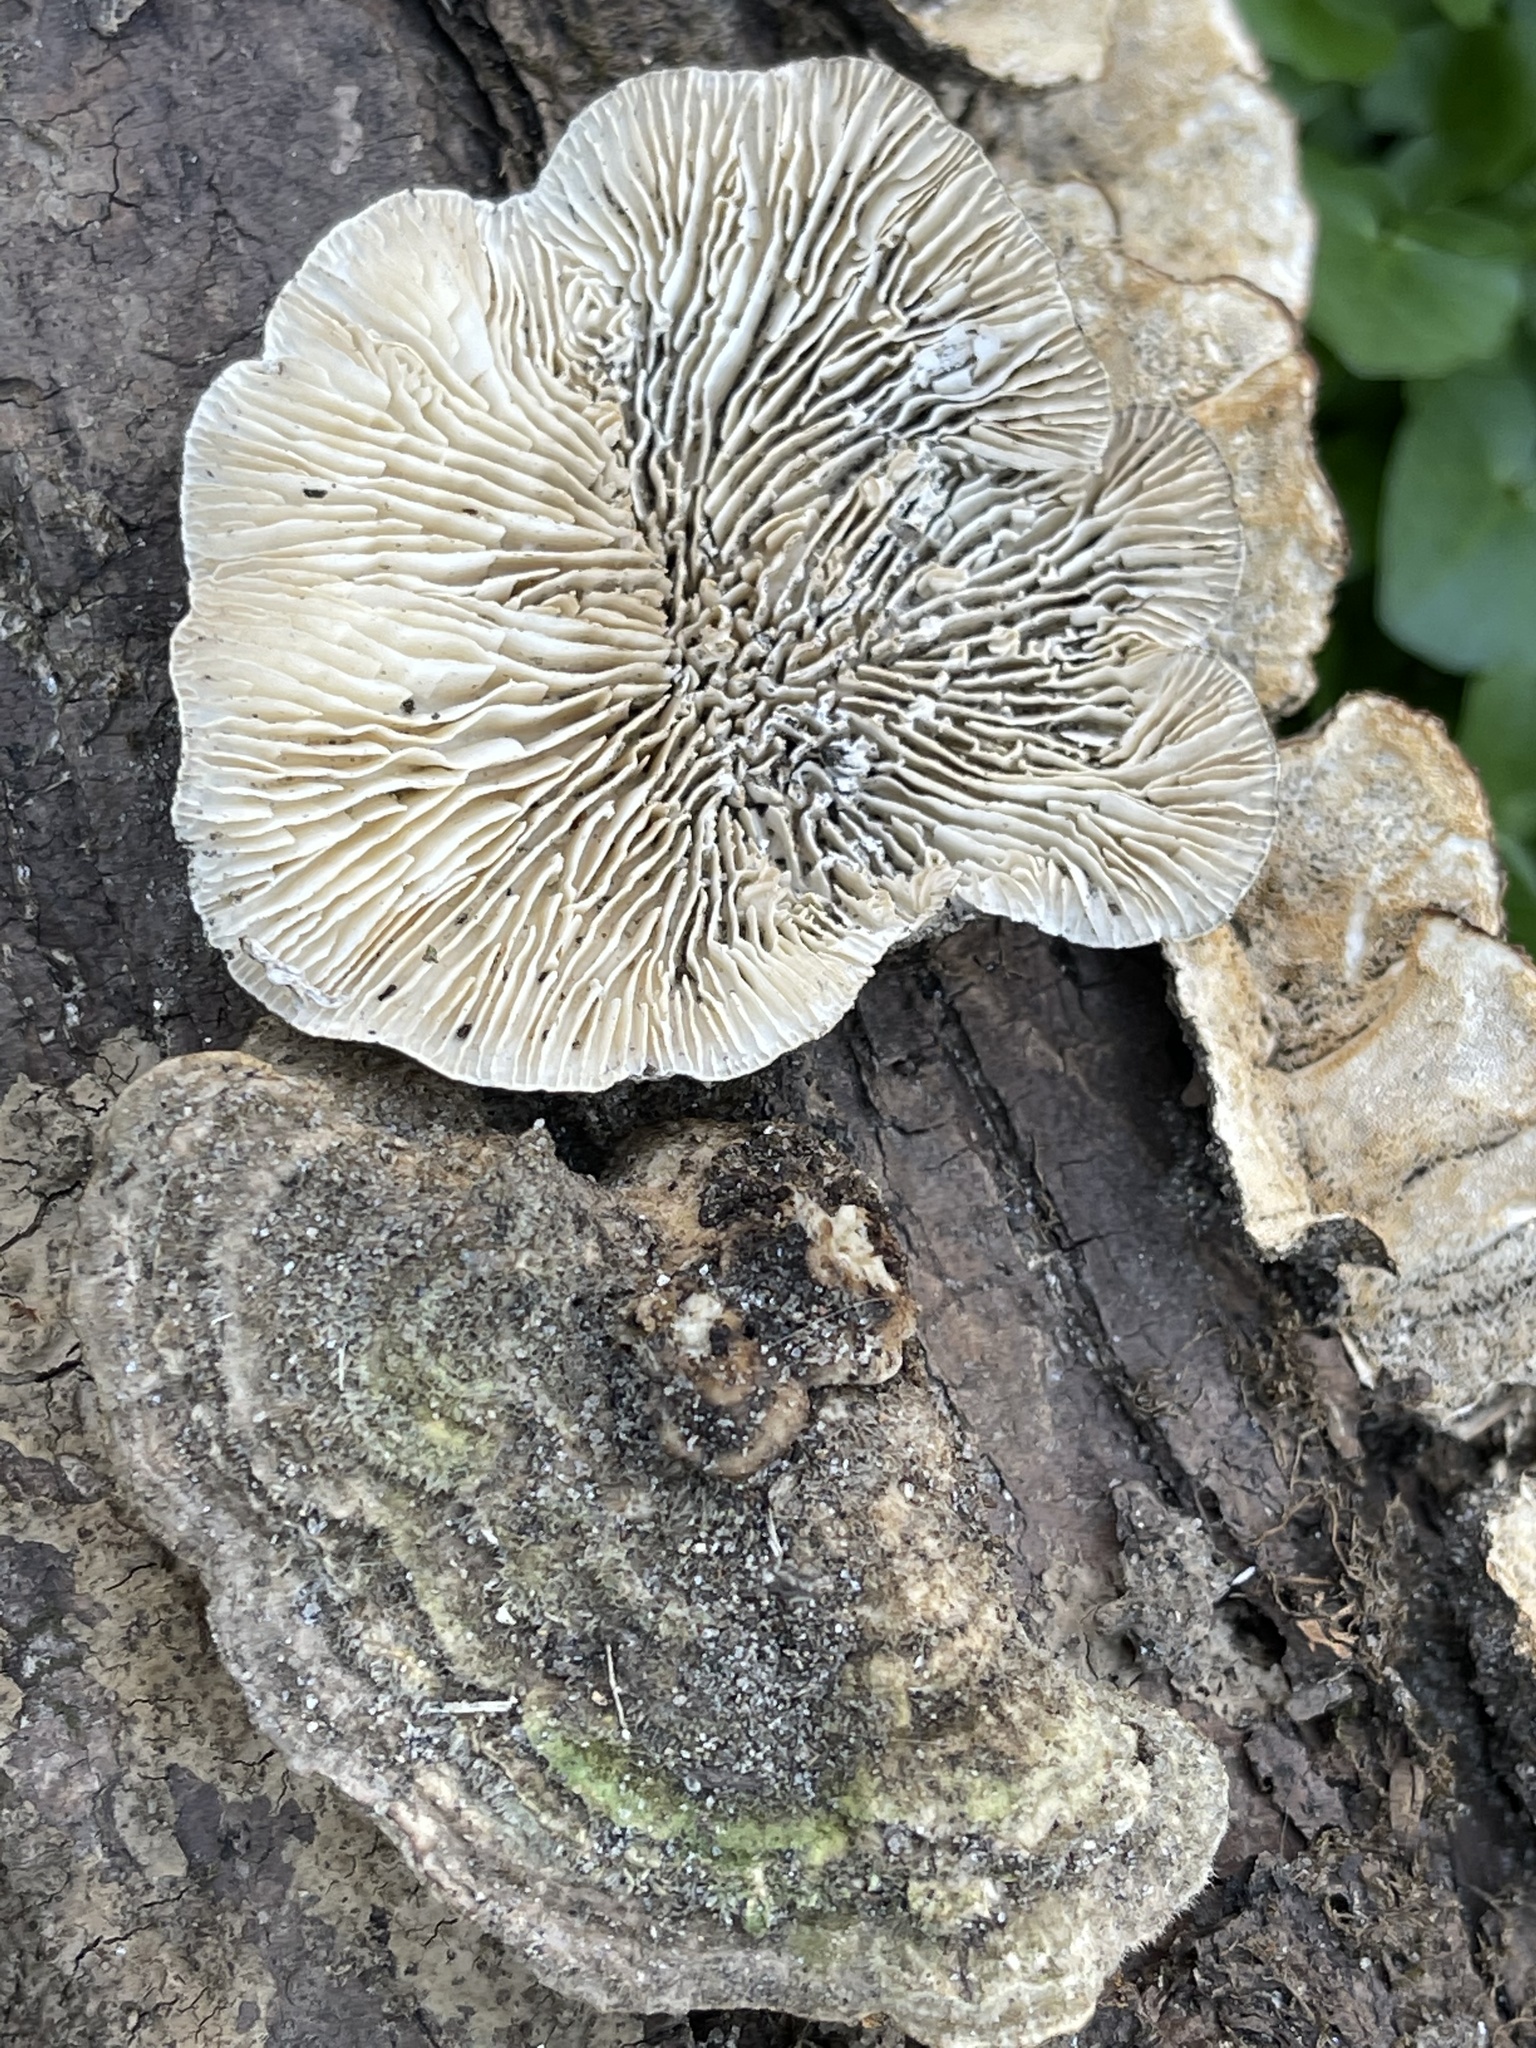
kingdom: Fungi
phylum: Basidiomycota
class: Agaricomycetes
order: Polyporales
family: Polyporaceae
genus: Lenzites
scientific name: Lenzites betulinus
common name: Birch mazegill
